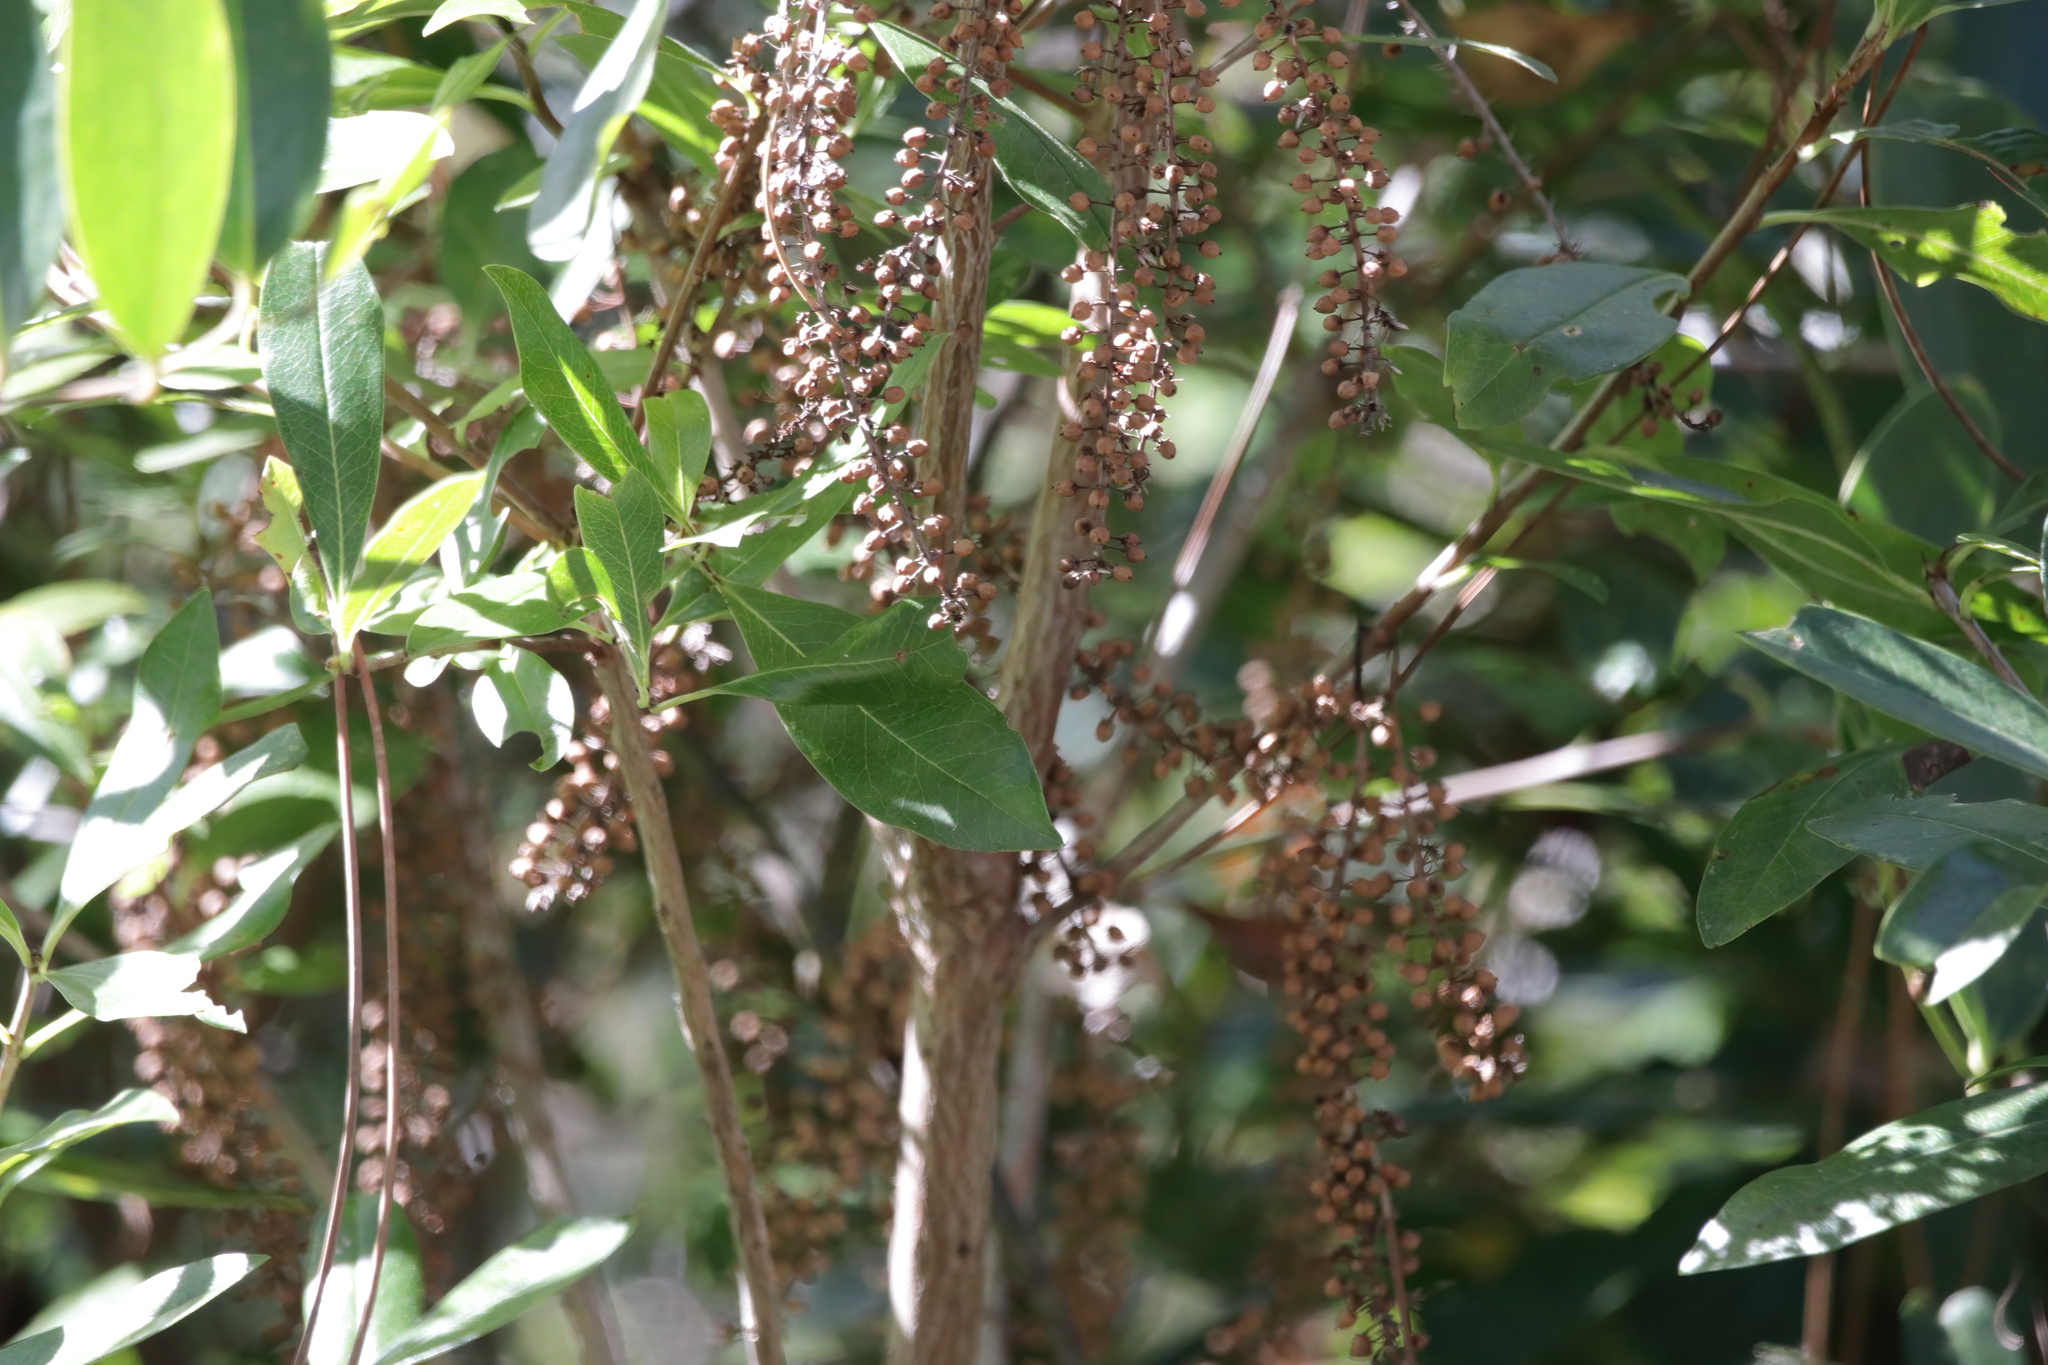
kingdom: Plantae
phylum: Tracheophyta
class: Magnoliopsida
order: Ericales
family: Cyrillaceae
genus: Cyrilla
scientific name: Cyrilla racemiflora
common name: Black titi
